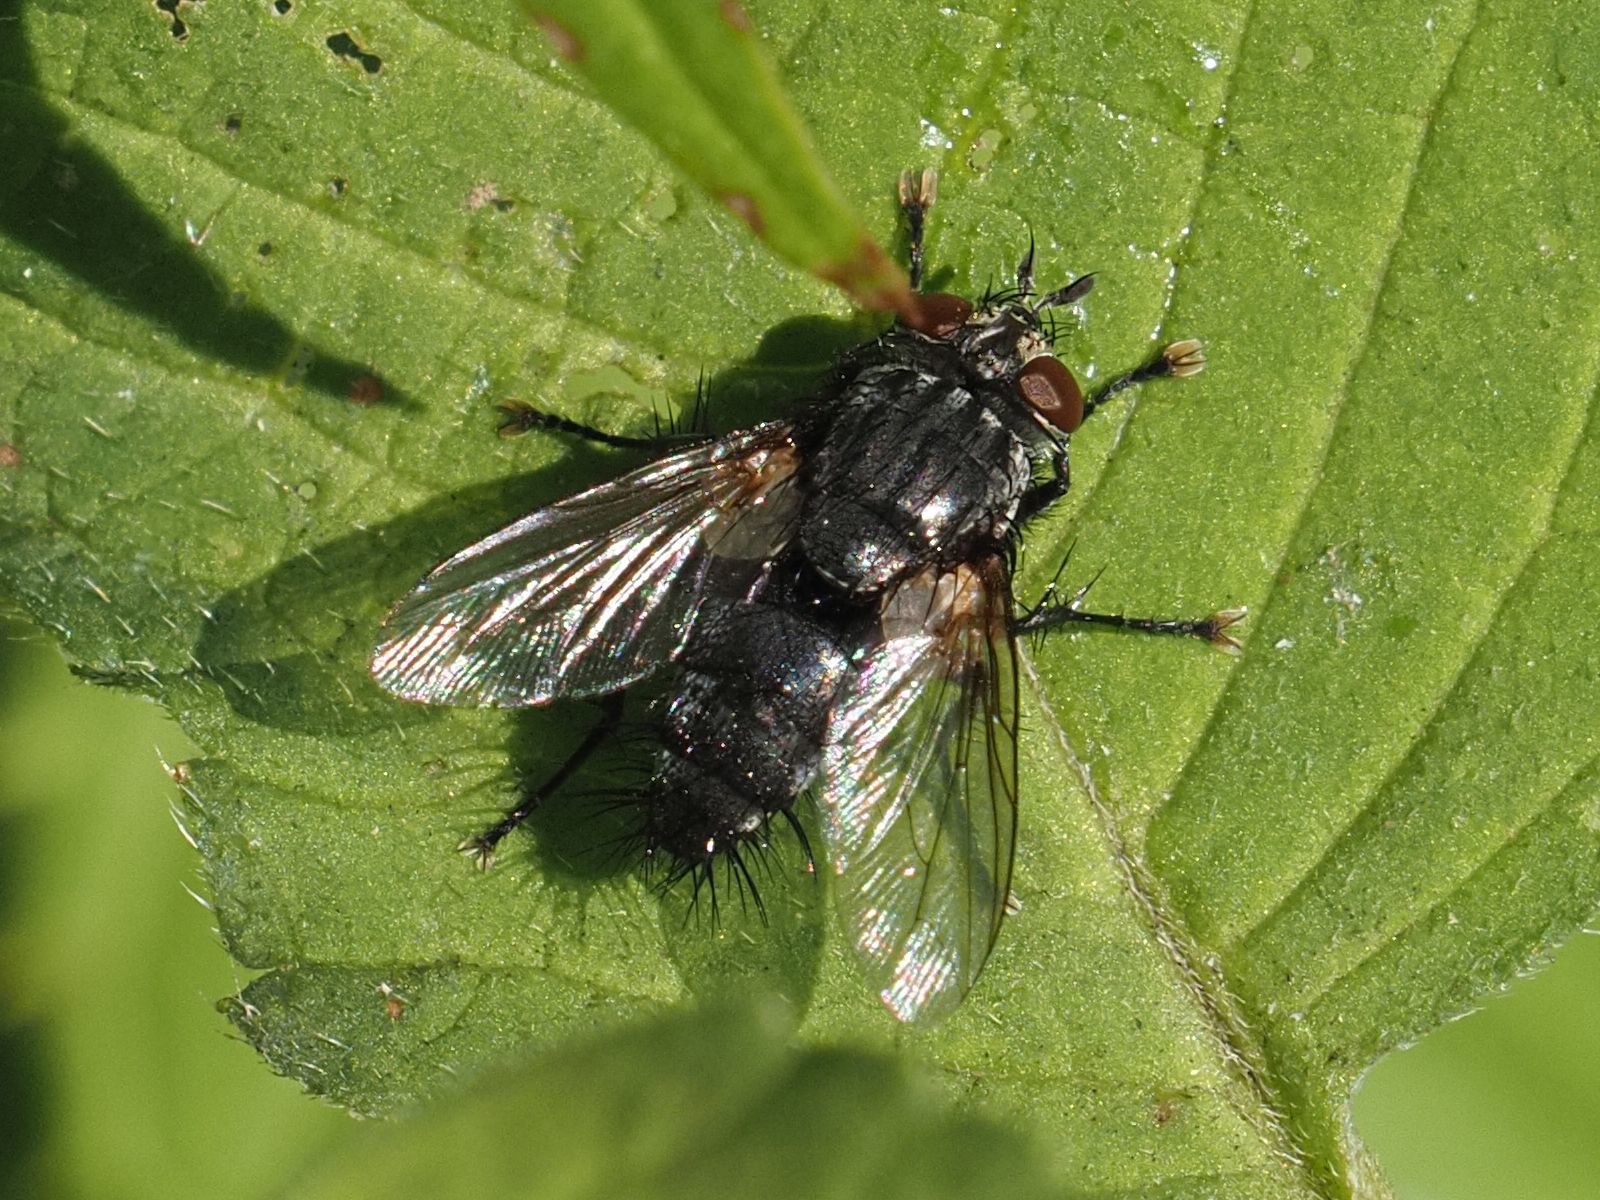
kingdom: Animalia
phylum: Arthropoda
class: Insecta
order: Diptera
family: Tachinidae
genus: Voria
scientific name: Voria ruralis
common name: Parasitic fly
